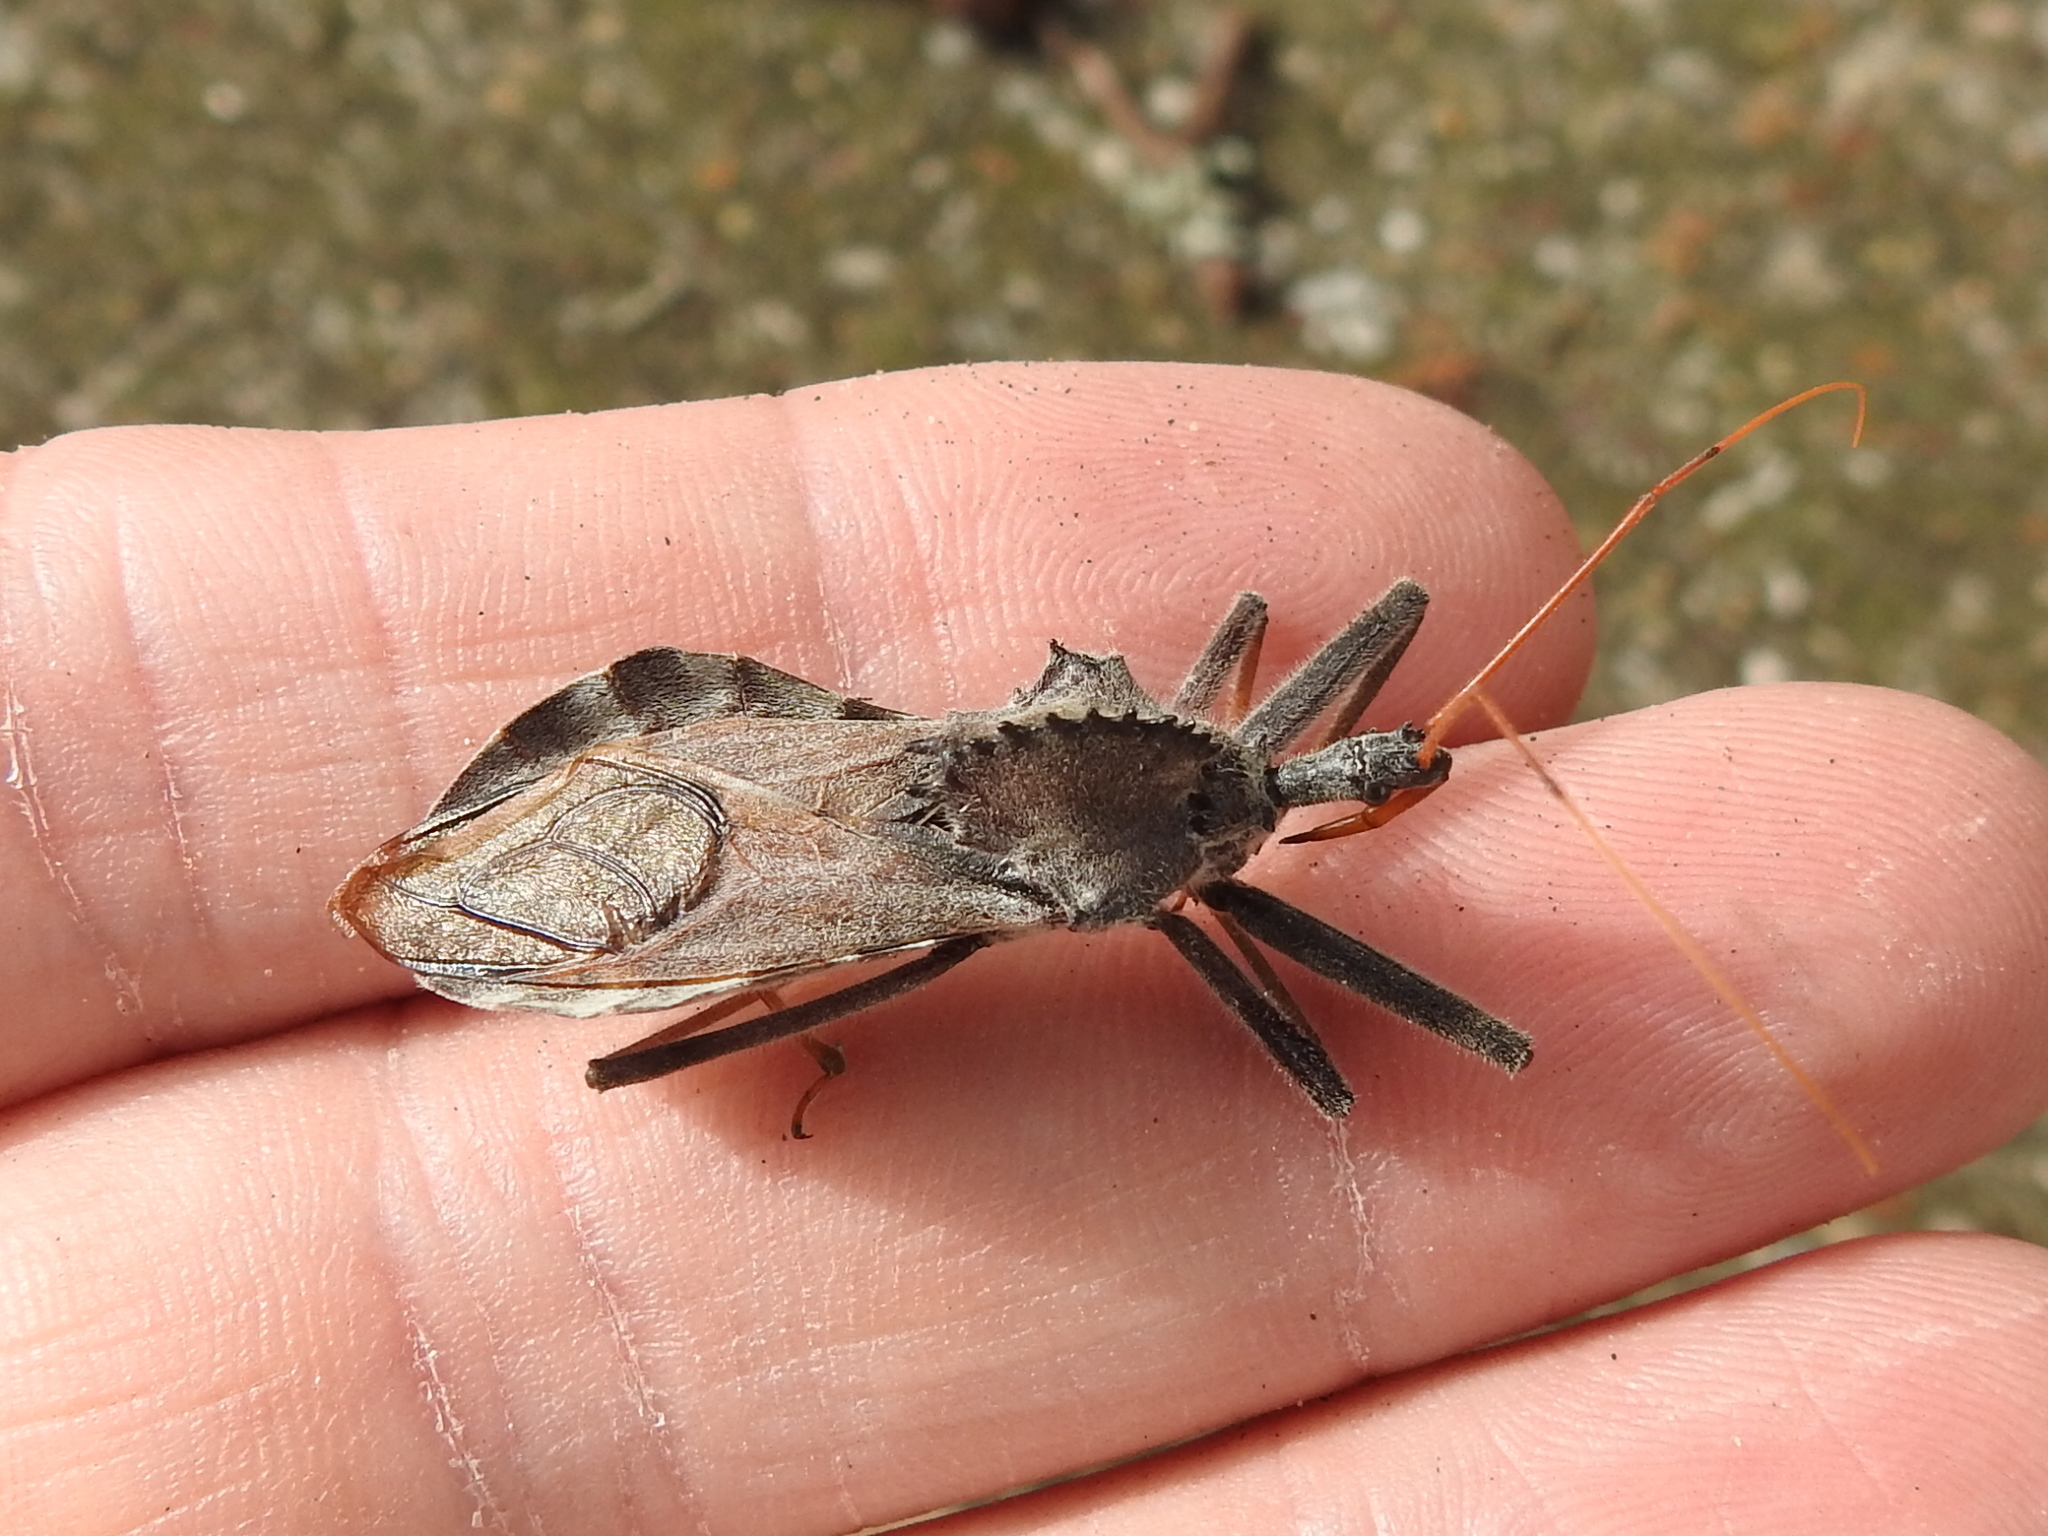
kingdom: Animalia
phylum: Arthropoda
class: Insecta
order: Hemiptera
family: Reduviidae
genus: Arilus
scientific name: Arilus cristatus
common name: North american wheel bug
